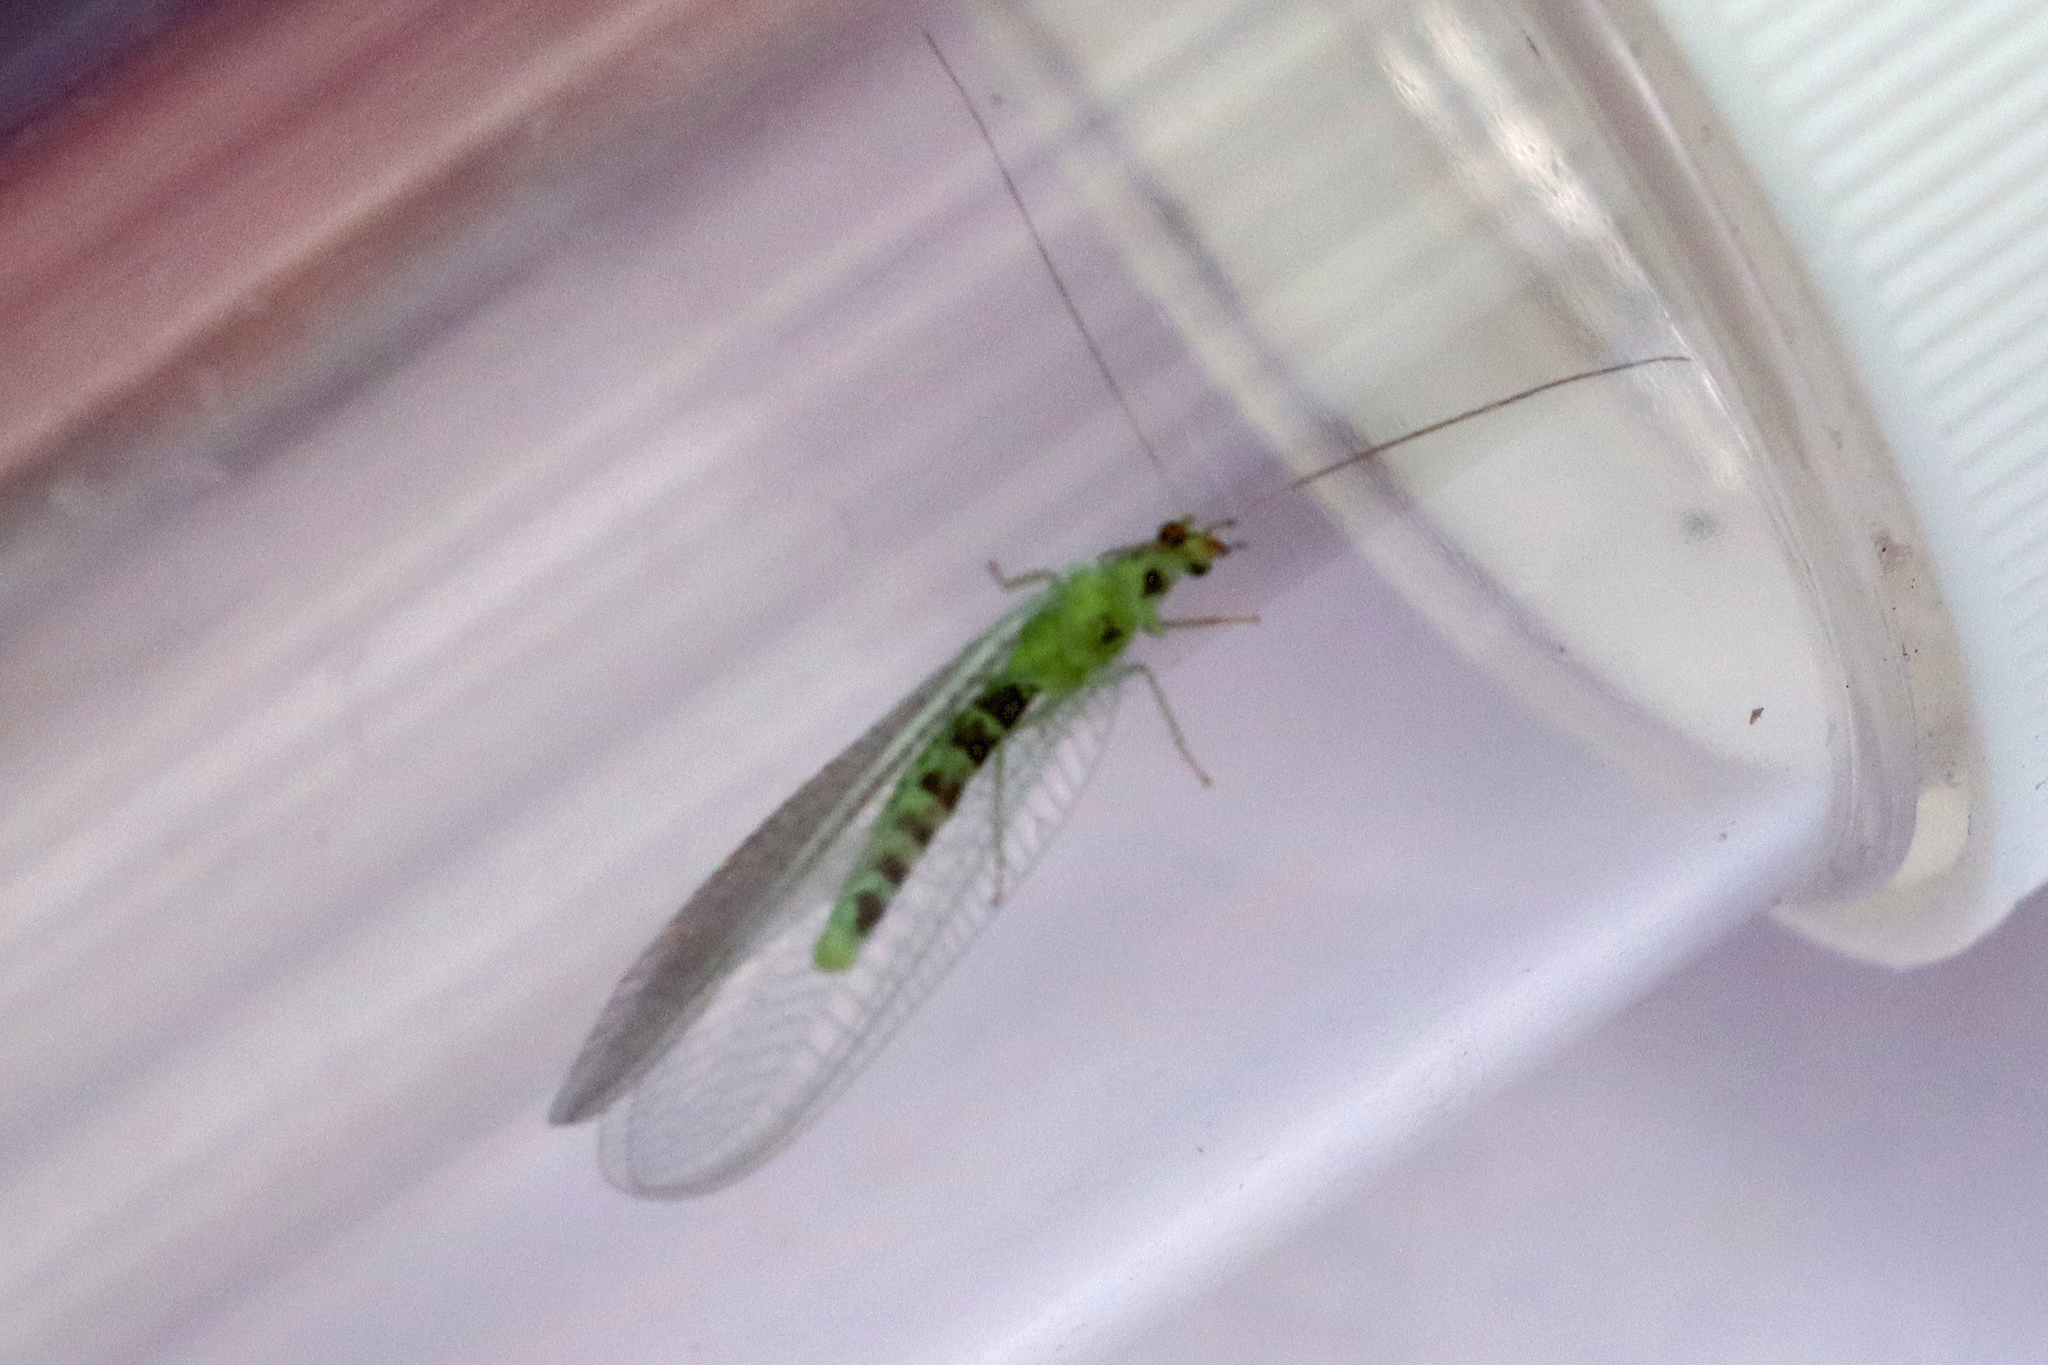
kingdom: Animalia
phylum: Arthropoda
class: Insecta
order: Neuroptera
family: Chrysopidae
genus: Pseudomallada
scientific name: Pseudomallada ventralis
